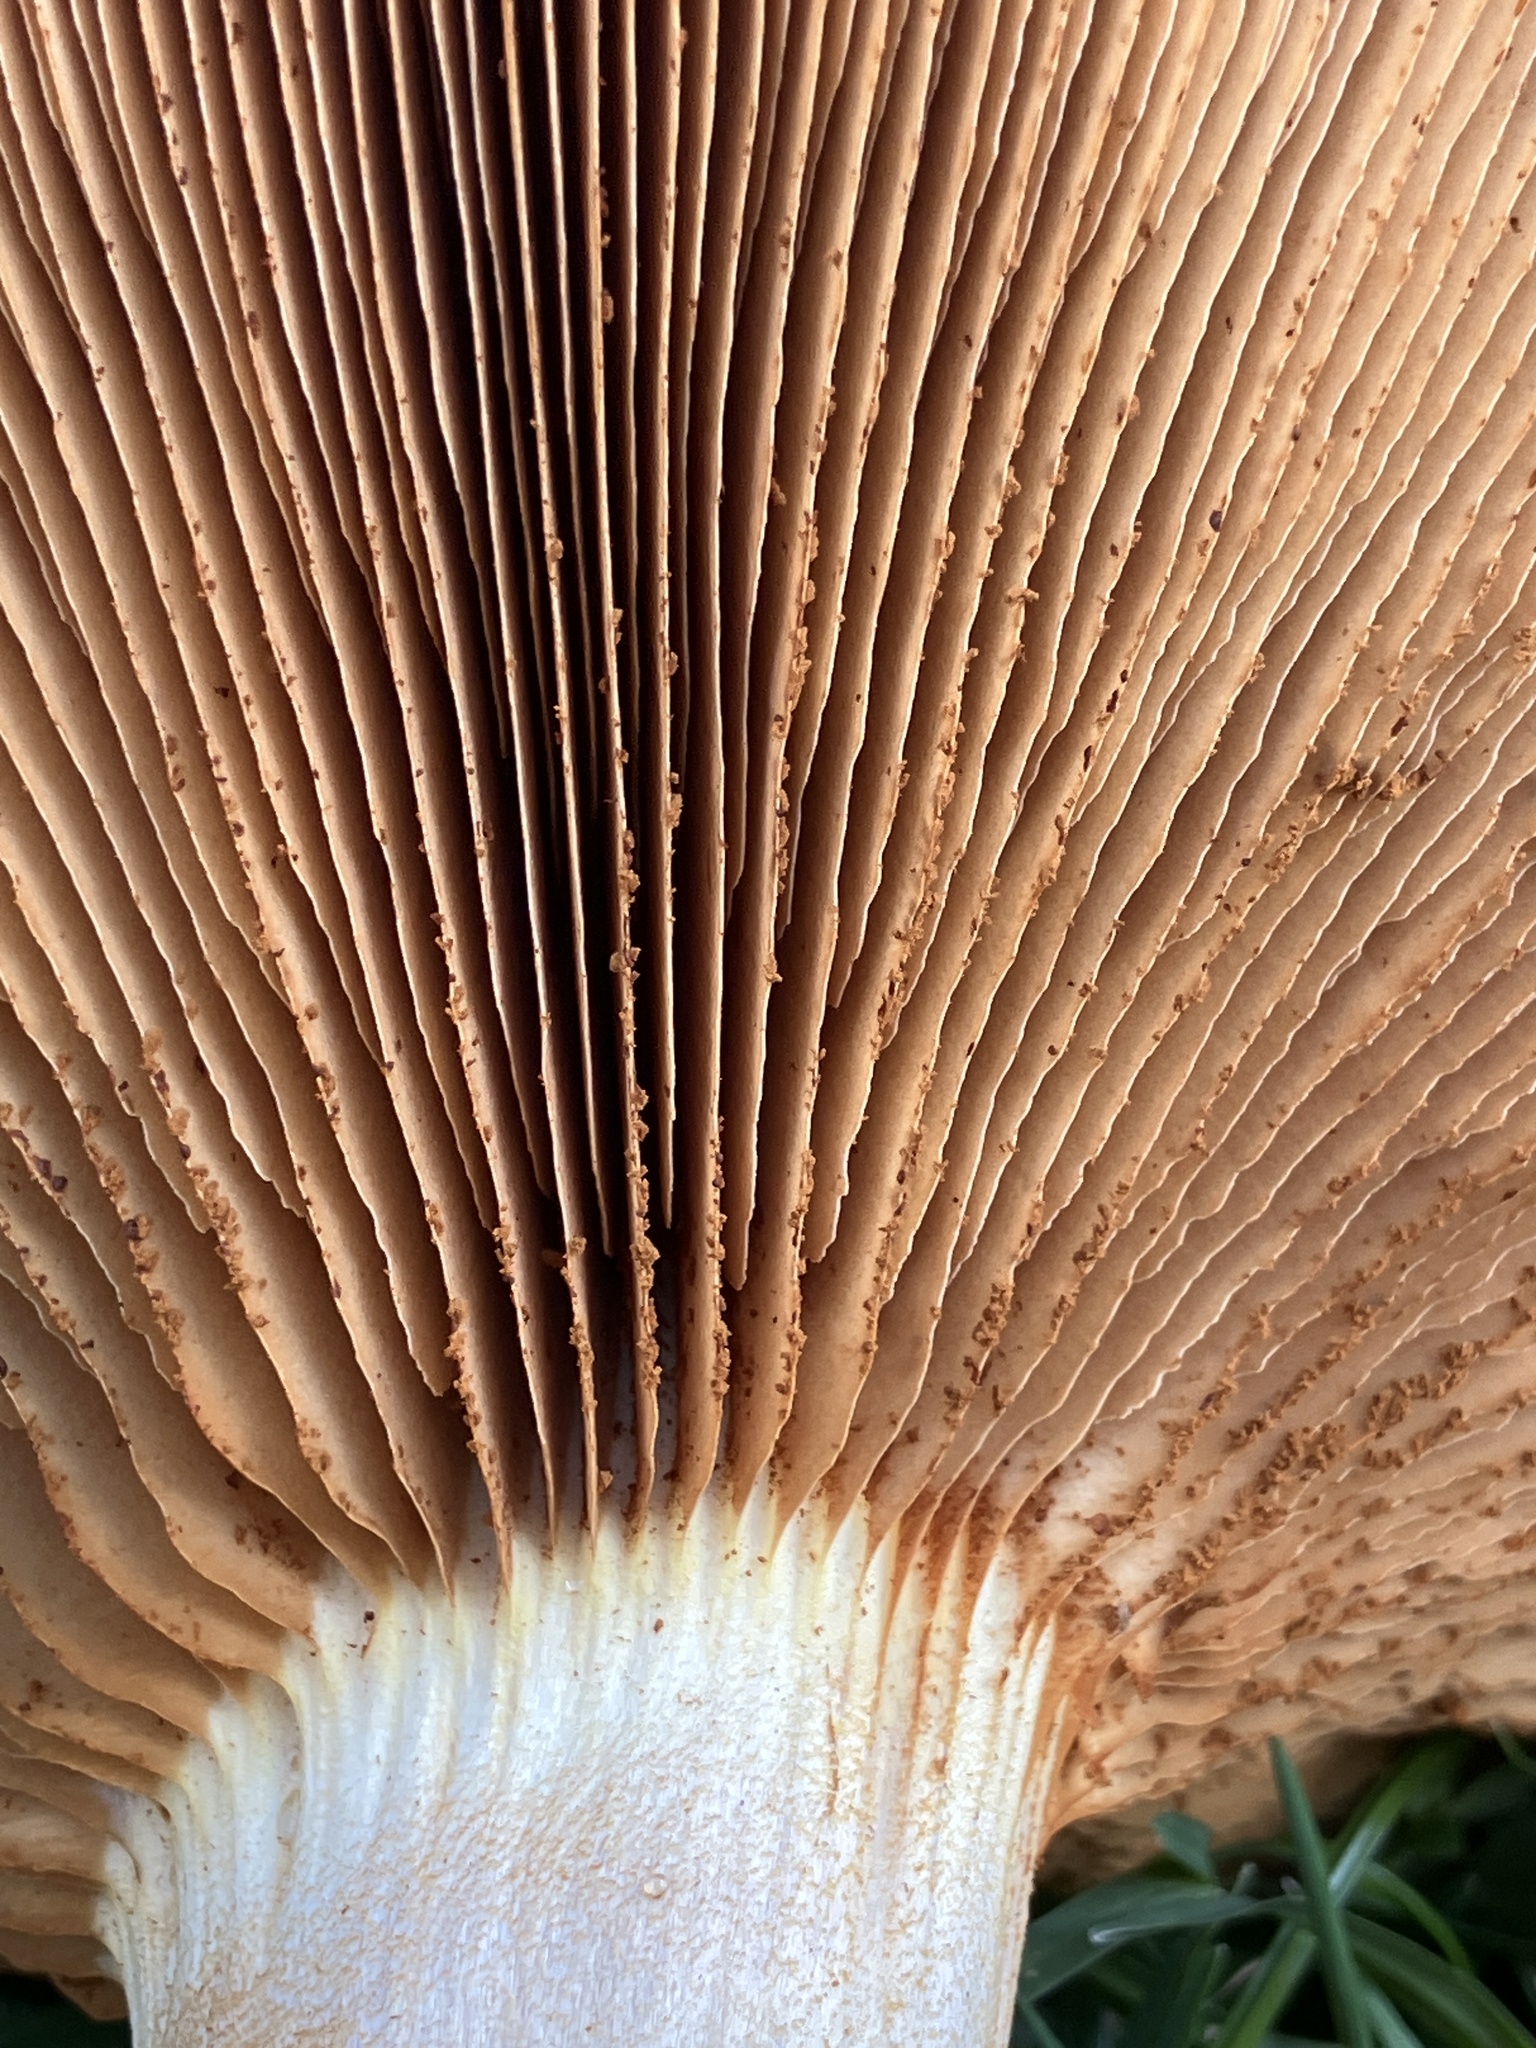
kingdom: Fungi
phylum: Basidiomycota
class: Agaricomycetes
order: Agaricales
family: Hymenogastraceae
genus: Gymnopilus
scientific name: Gymnopilus junonius
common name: Spectacular rustgill
